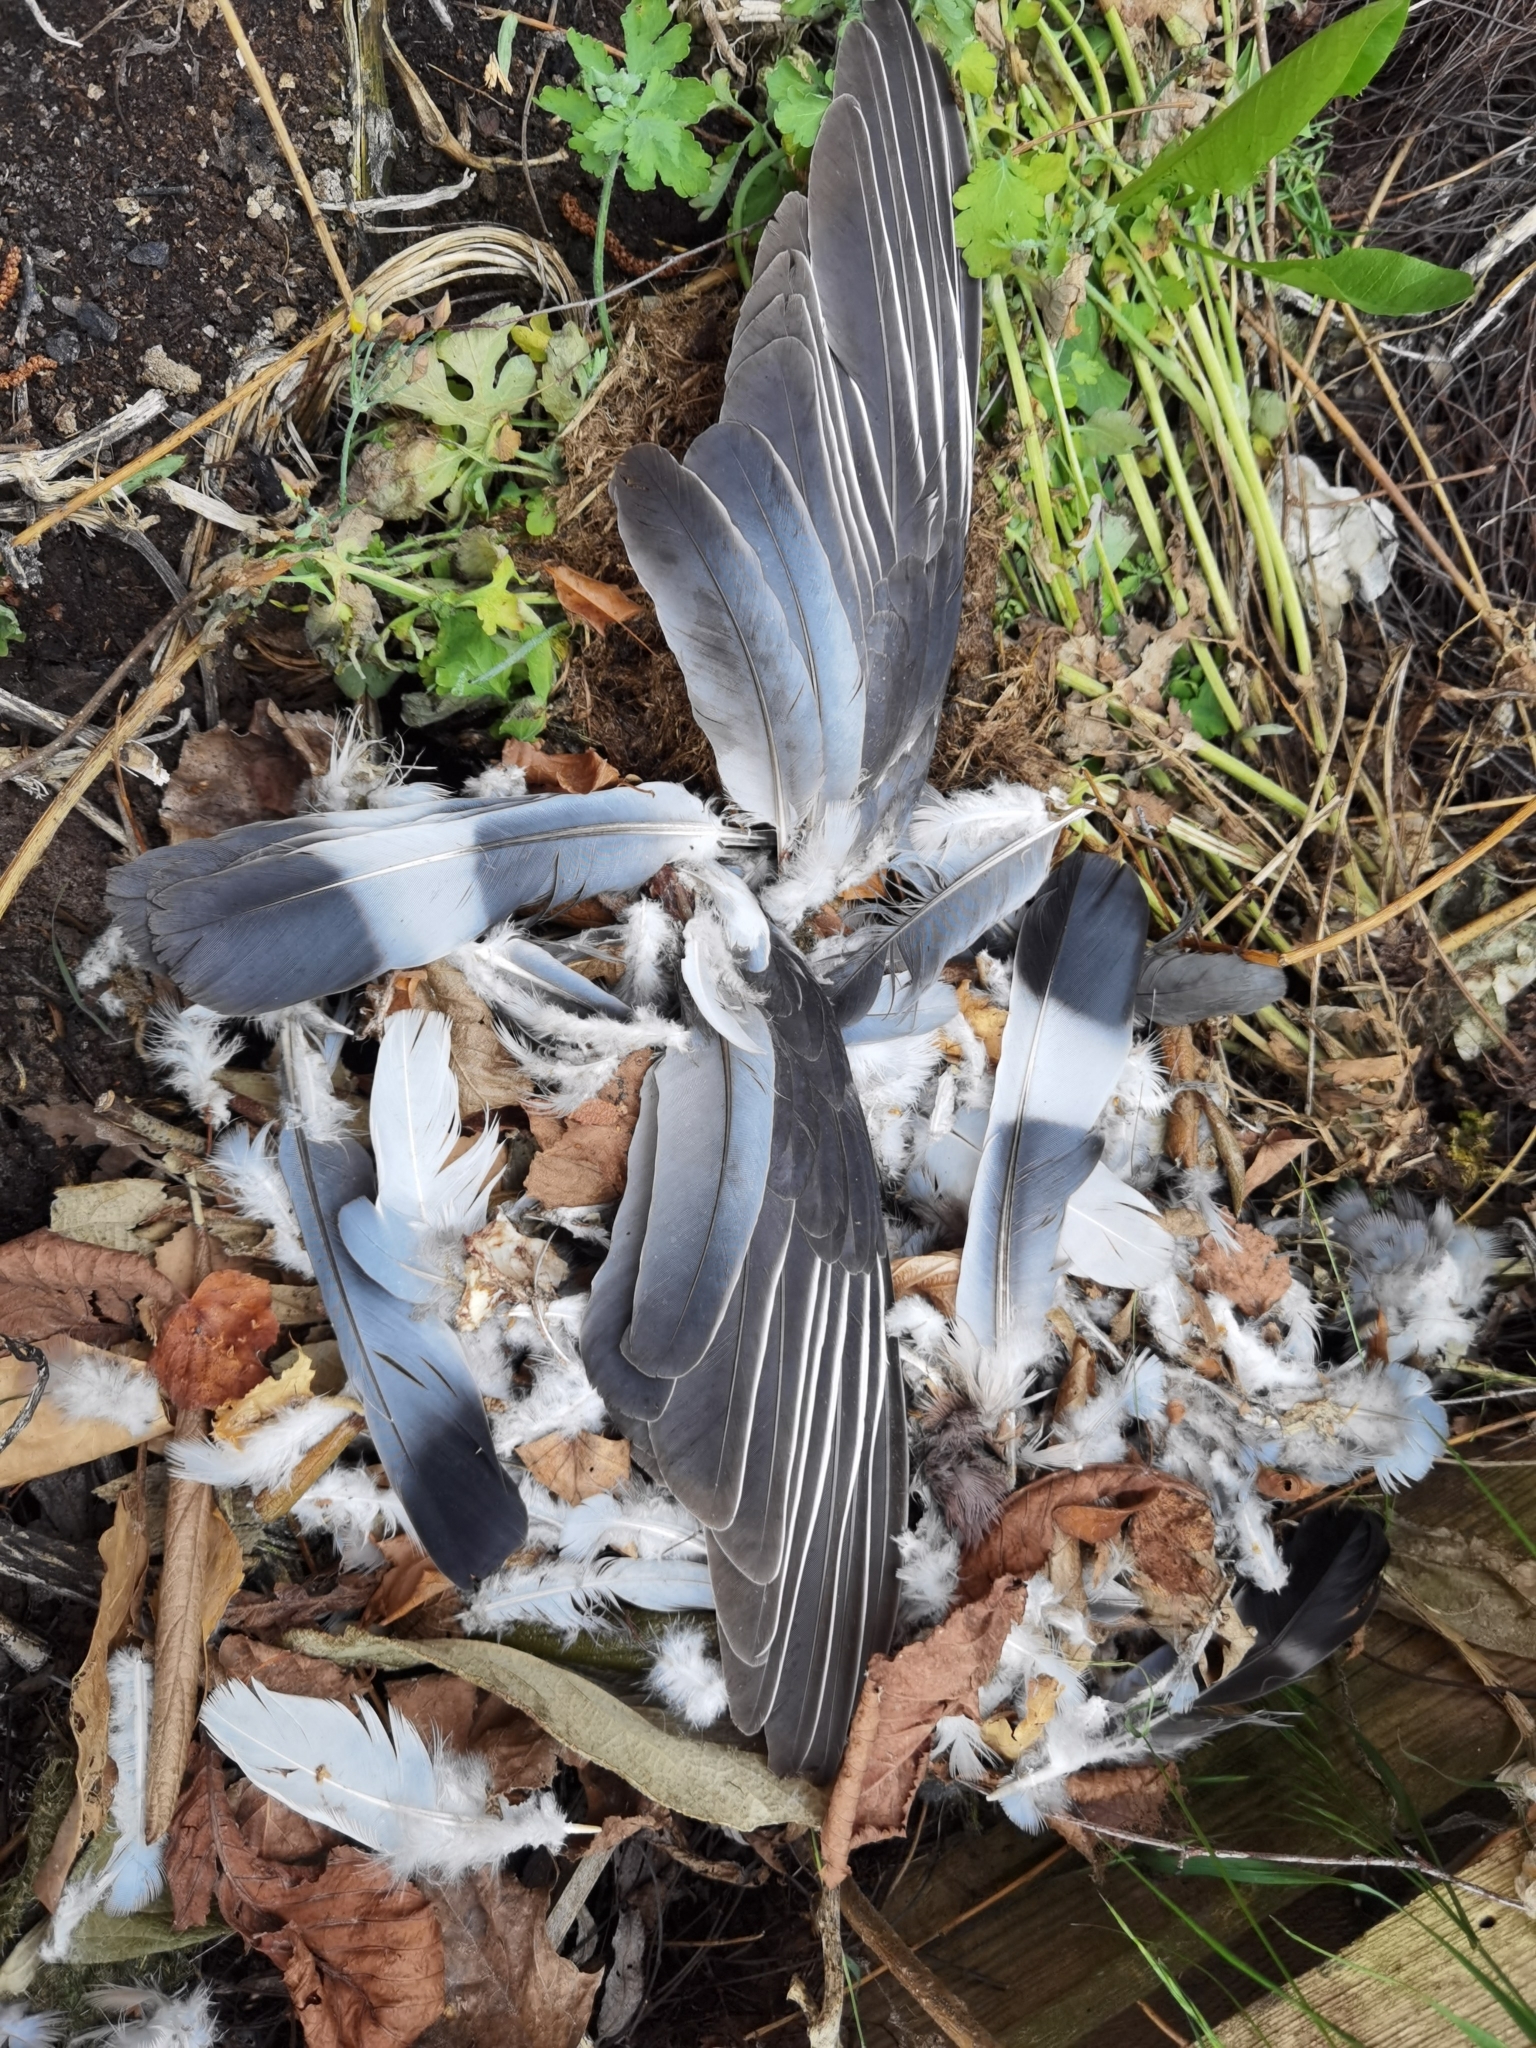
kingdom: Animalia
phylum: Chordata
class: Aves
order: Columbiformes
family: Columbidae
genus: Columba
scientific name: Columba palumbus
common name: Common wood pigeon
